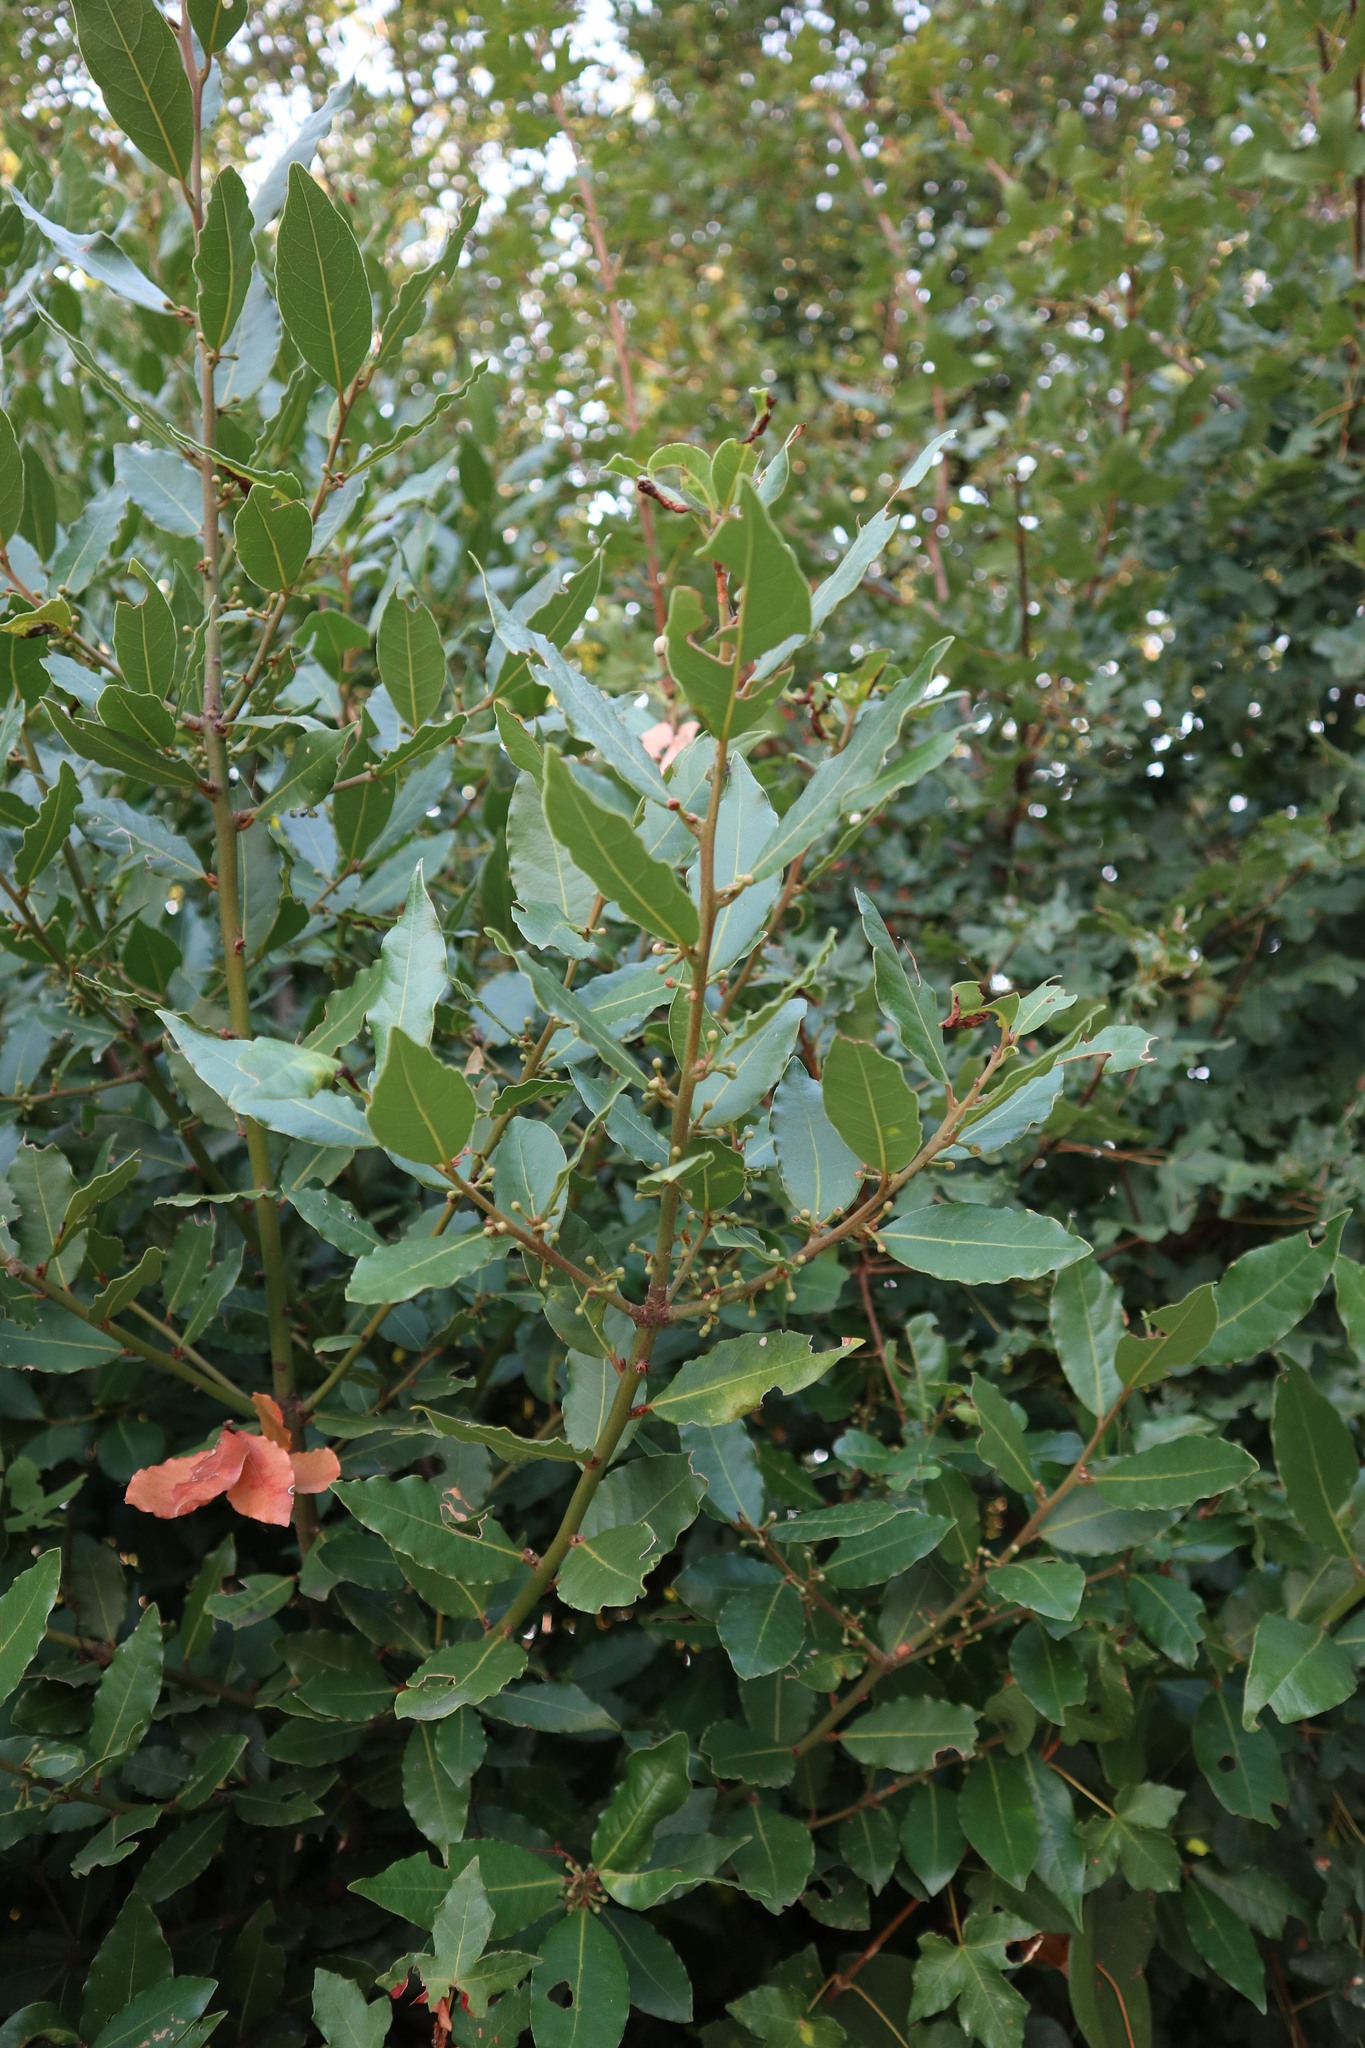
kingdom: Plantae
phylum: Tracheophyta
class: Magnoliopsida
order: Laurales
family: Lauraceae
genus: Laurus
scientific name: Laurus nobilis
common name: Bay
